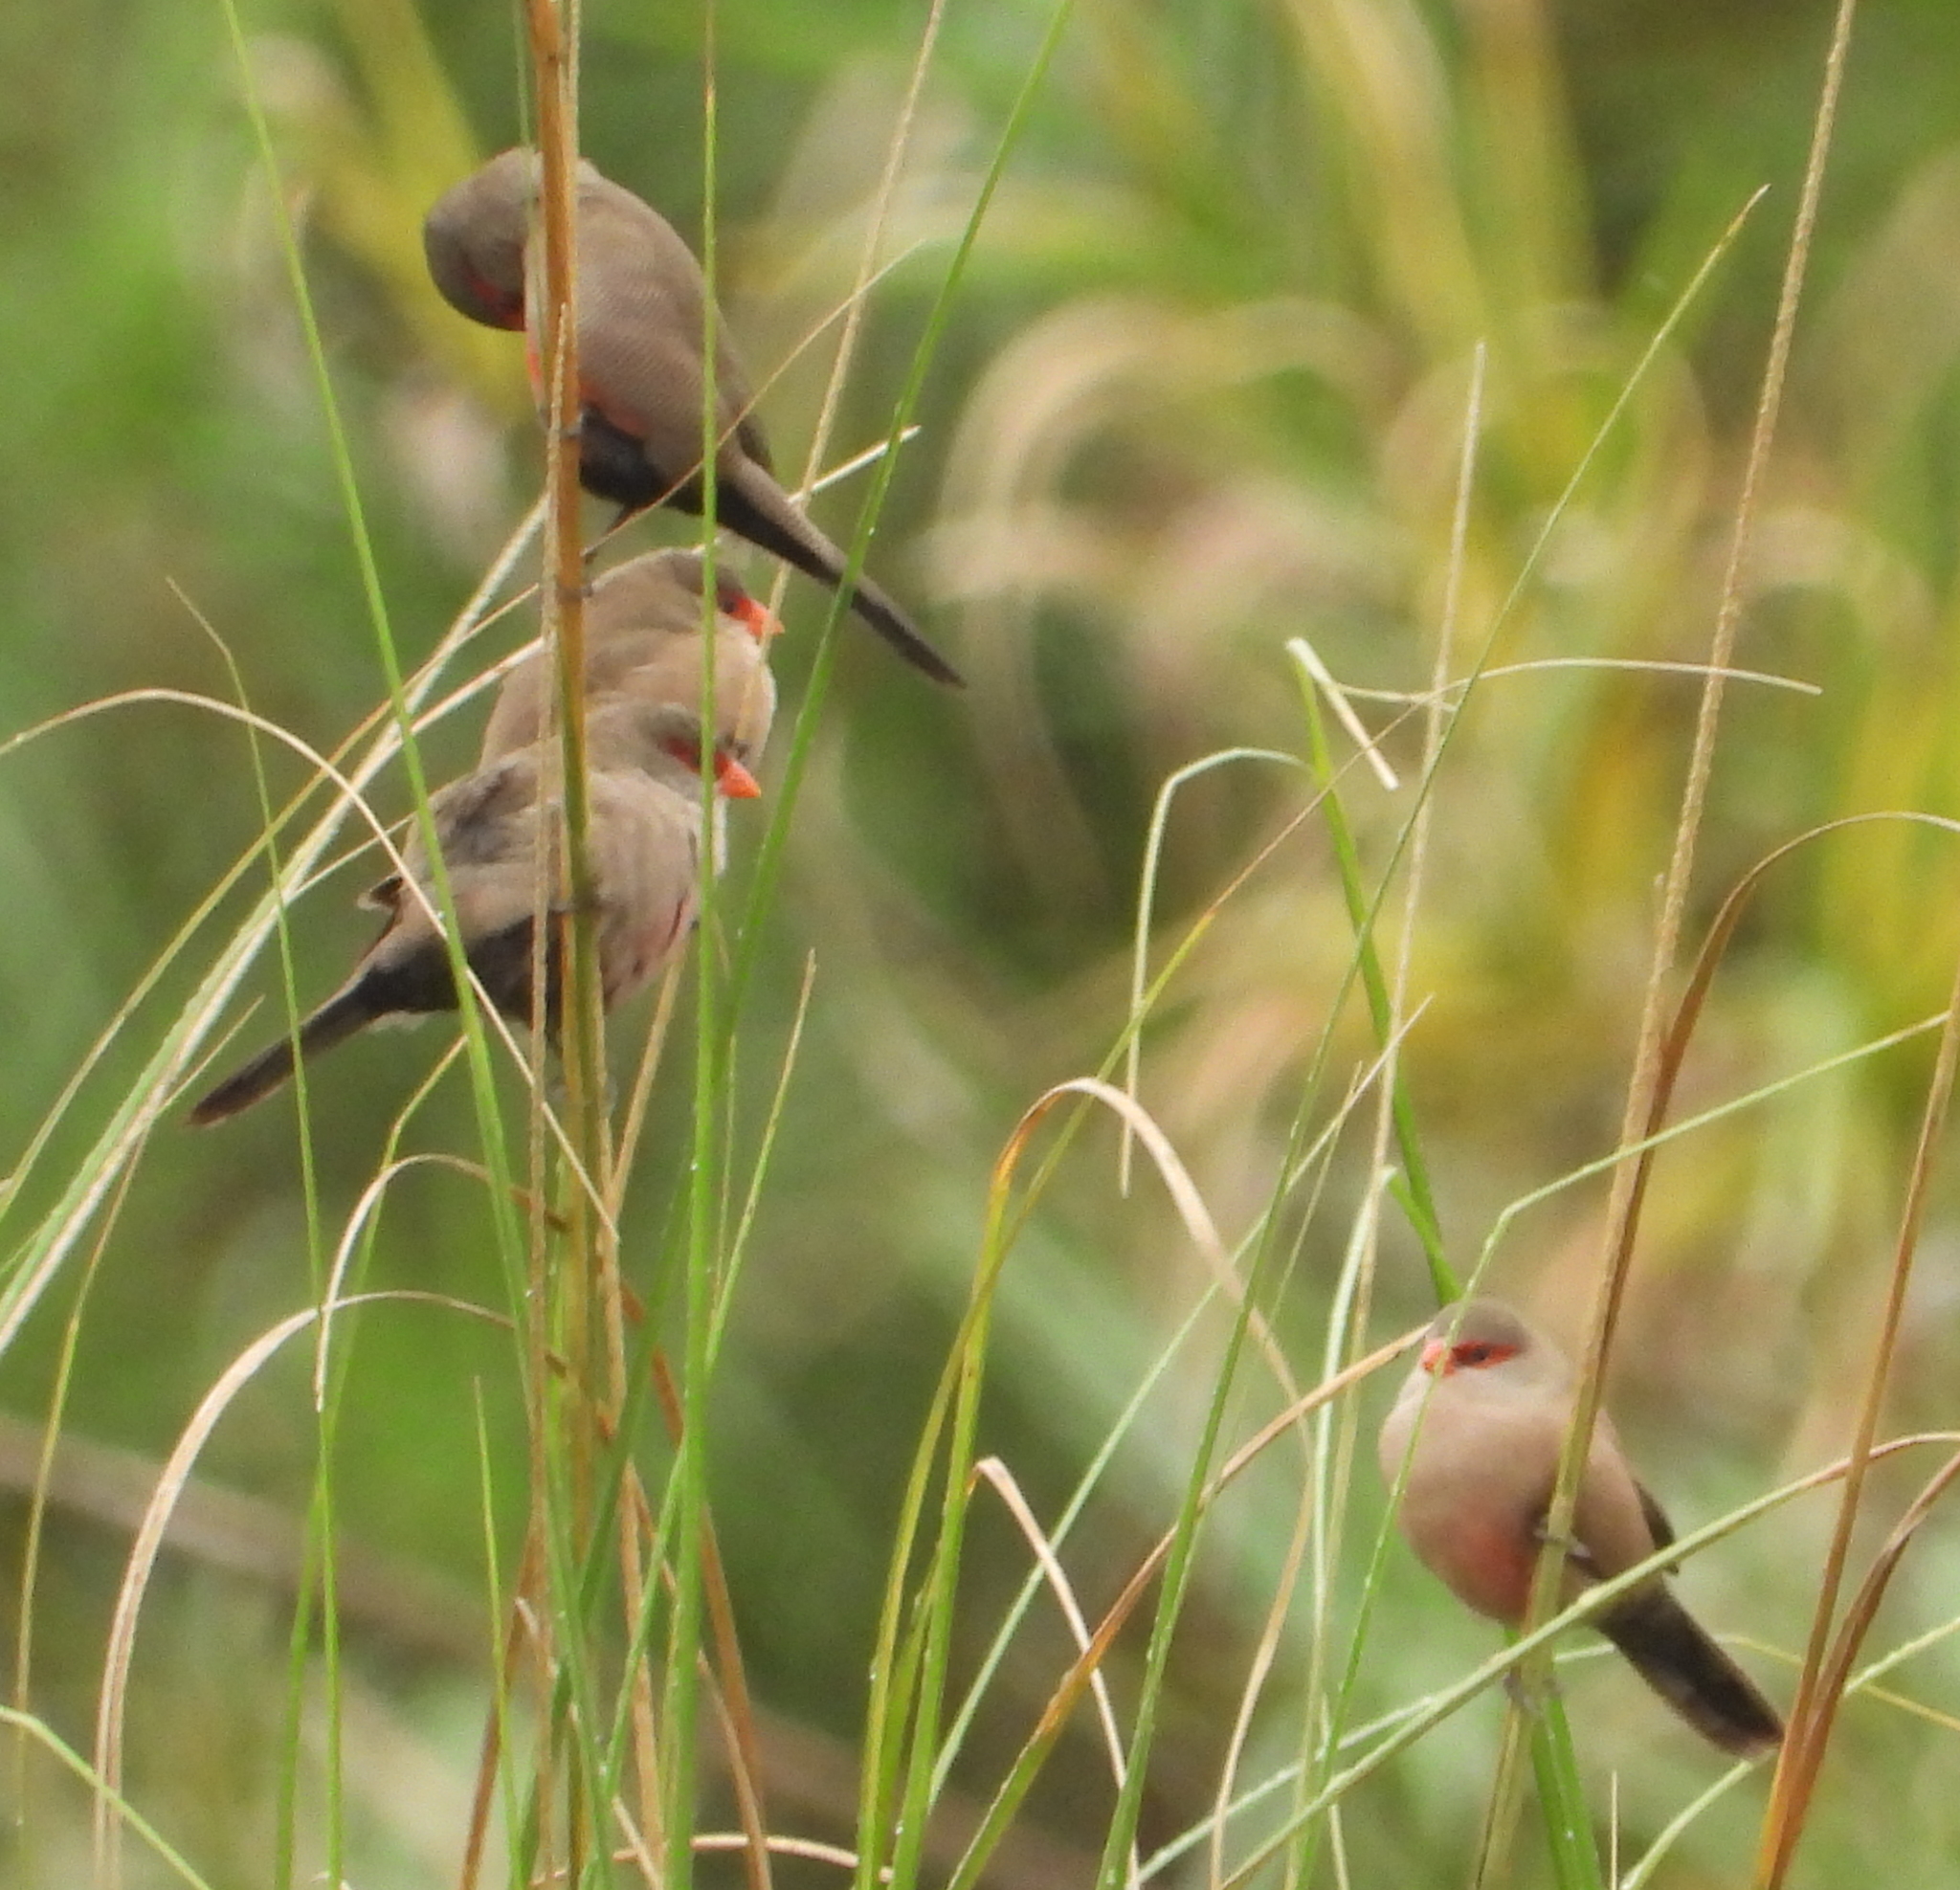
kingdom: Animalia
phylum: Chordata
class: Aves
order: Passeriformes
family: Estrildidae
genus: Estrilda
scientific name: Estrilda astrild
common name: Common waxbill
